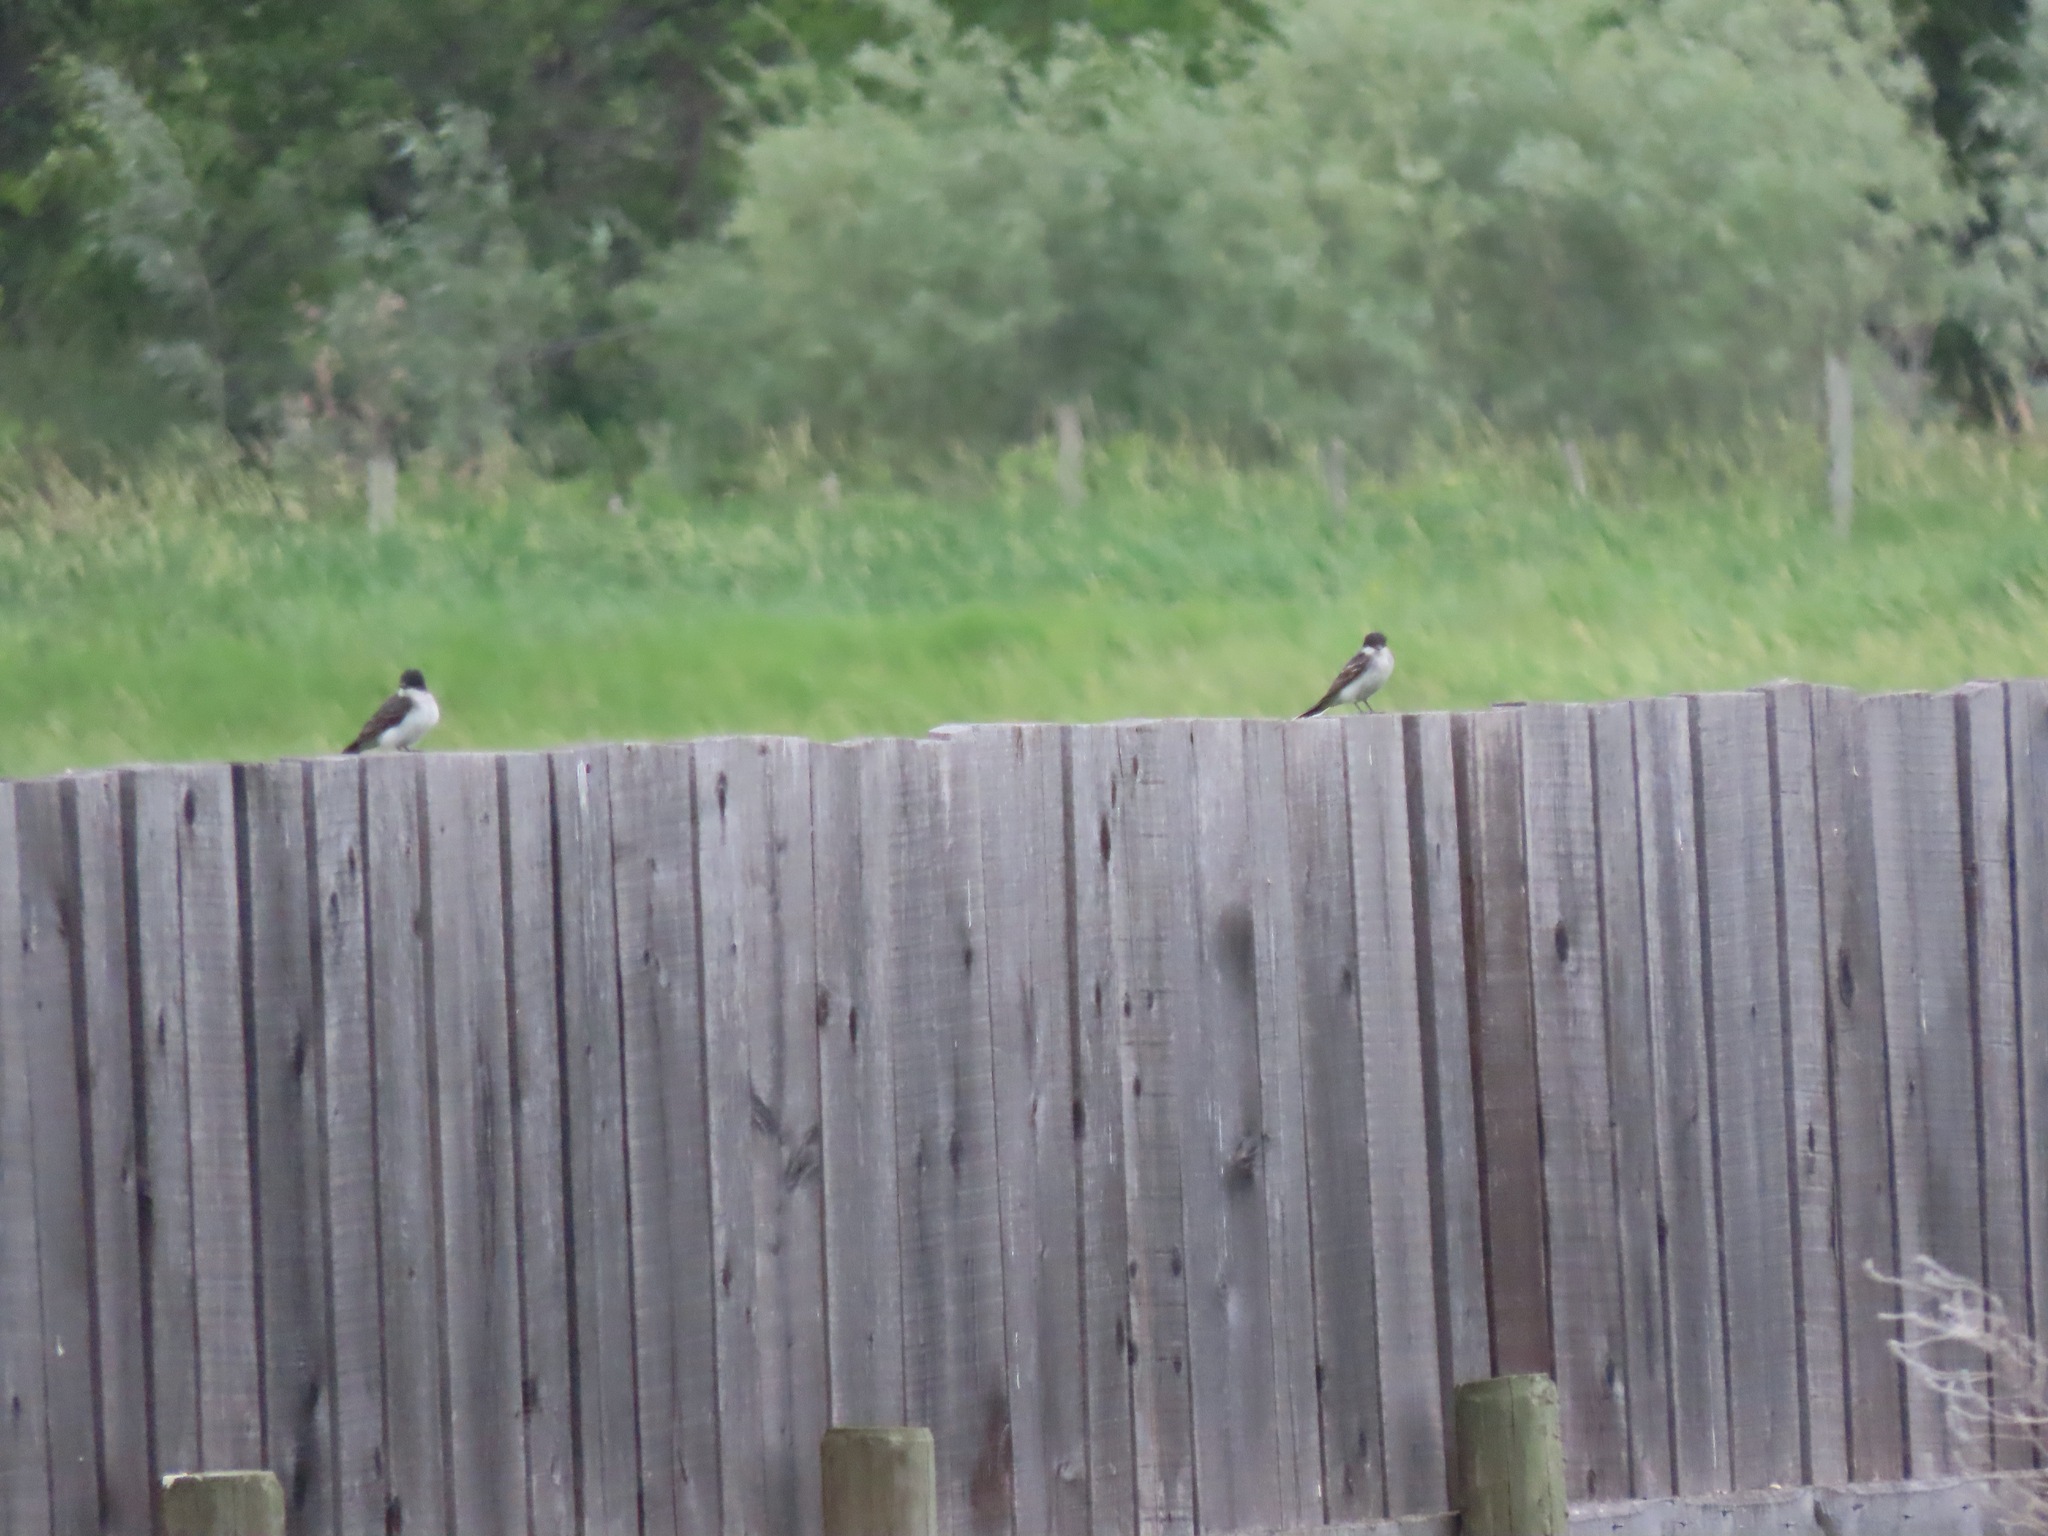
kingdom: Animalia
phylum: Chordata
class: Aves
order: Passeriformes
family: Tyrannidae
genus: Tyrannus
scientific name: Tyrannus tyrannus
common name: Eastern kingbird
